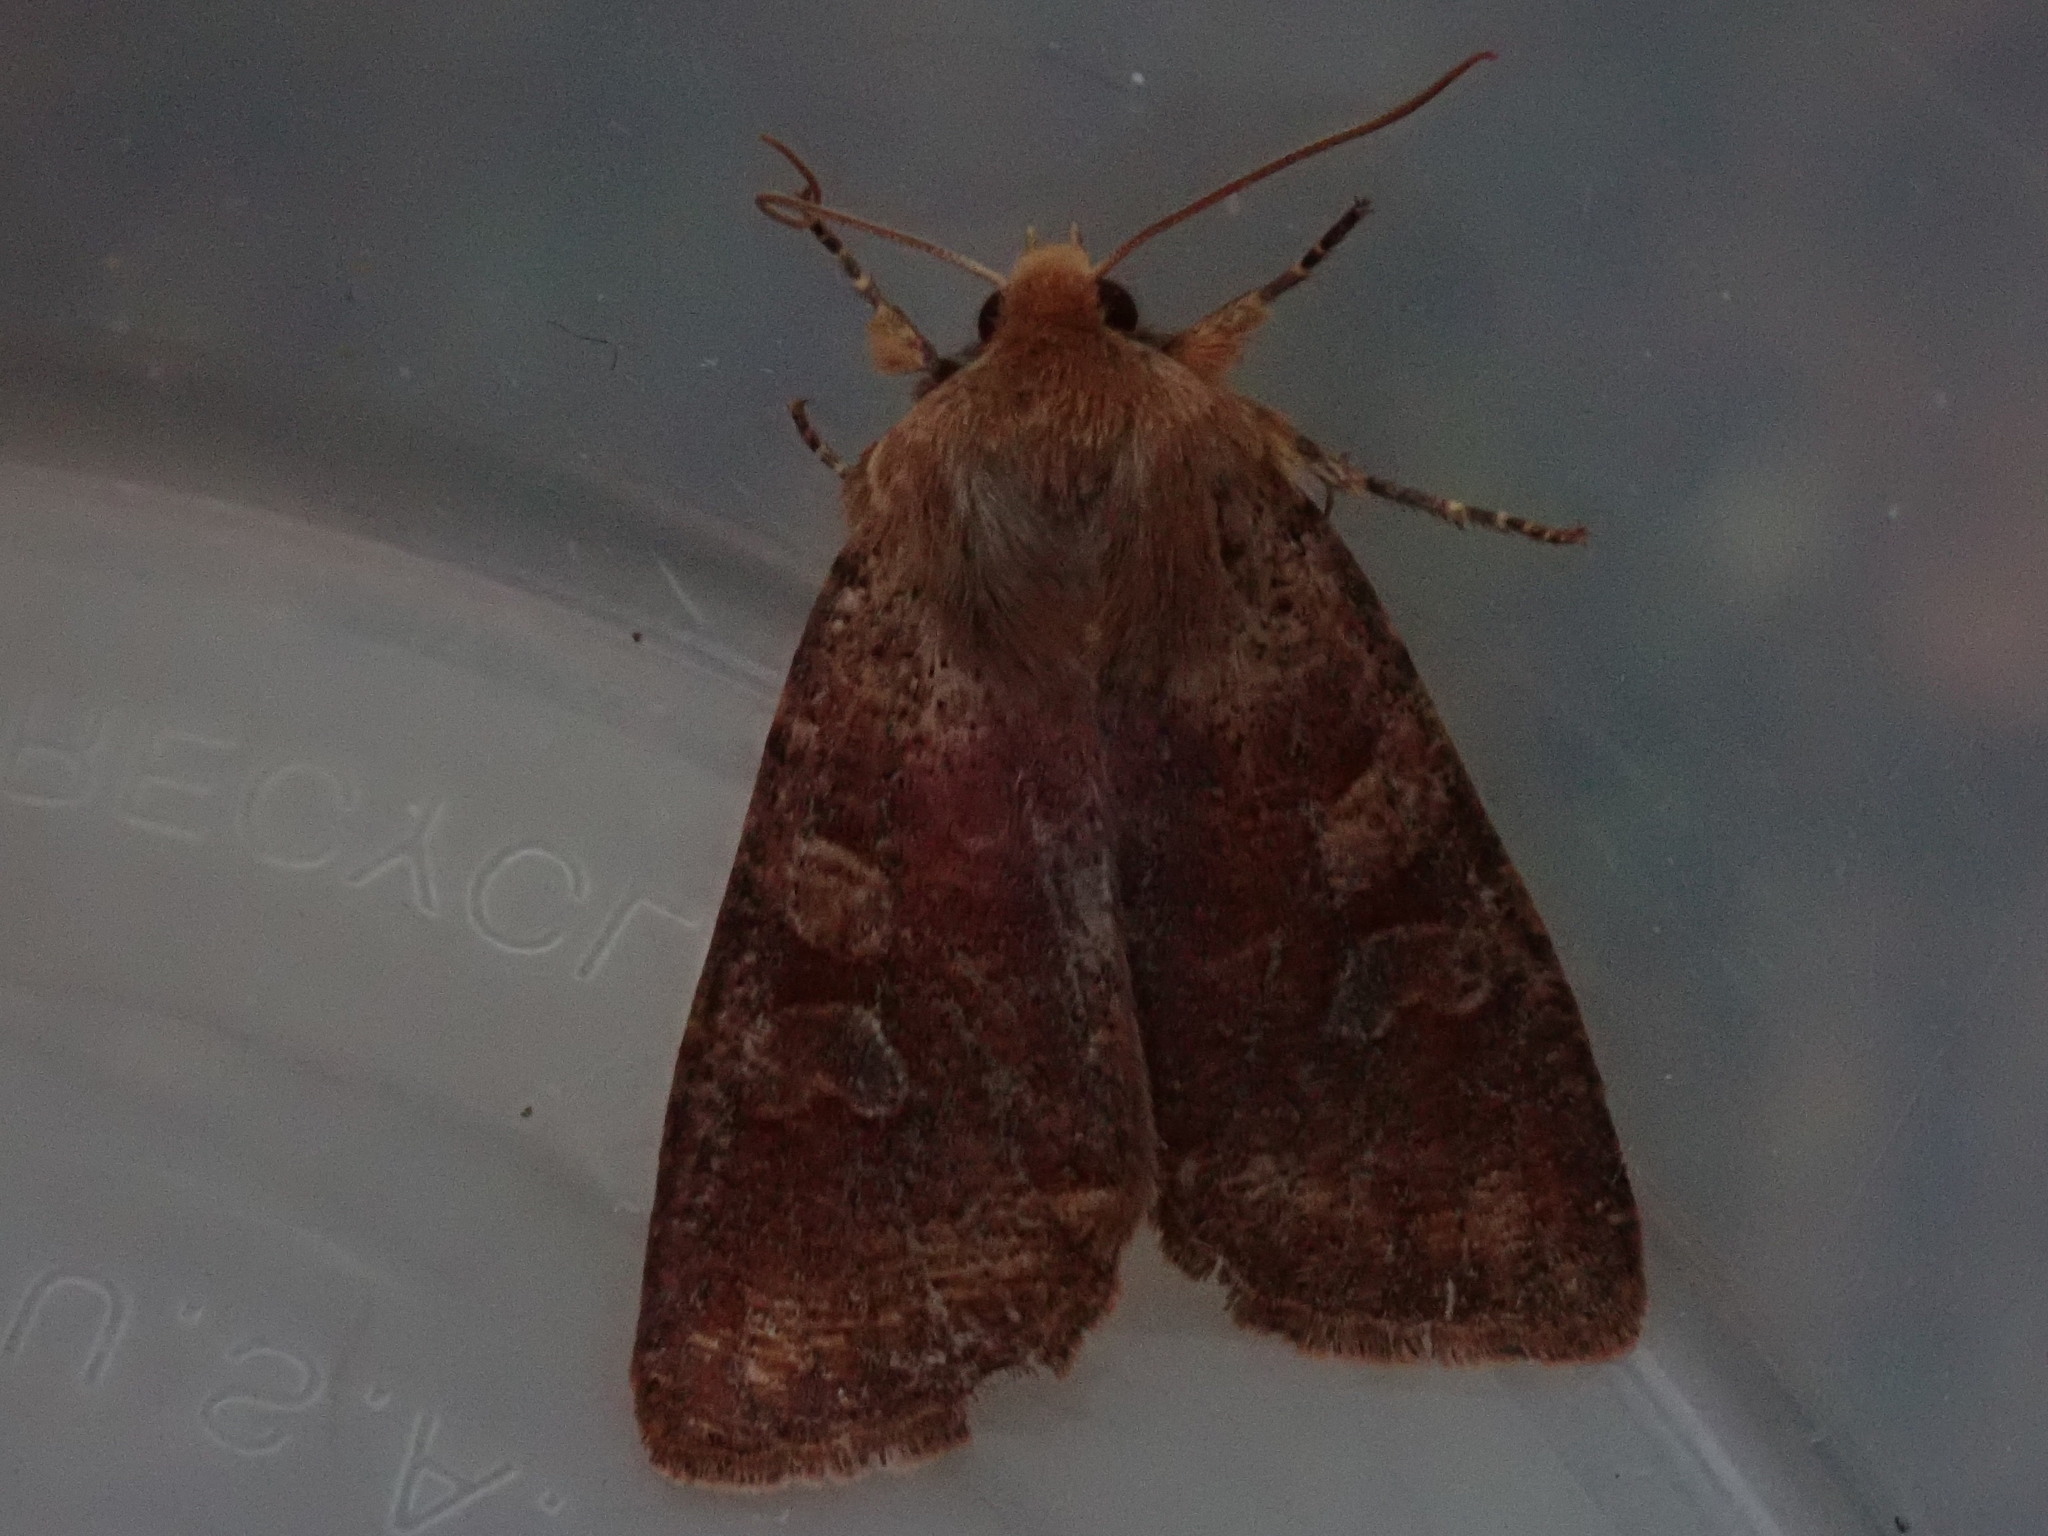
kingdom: Animalia
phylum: Arthropoda
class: Insecta
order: Lepidoptera
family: Noctuidae
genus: Orthosia
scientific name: Orthosia rubescens
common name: Ruby quaker
